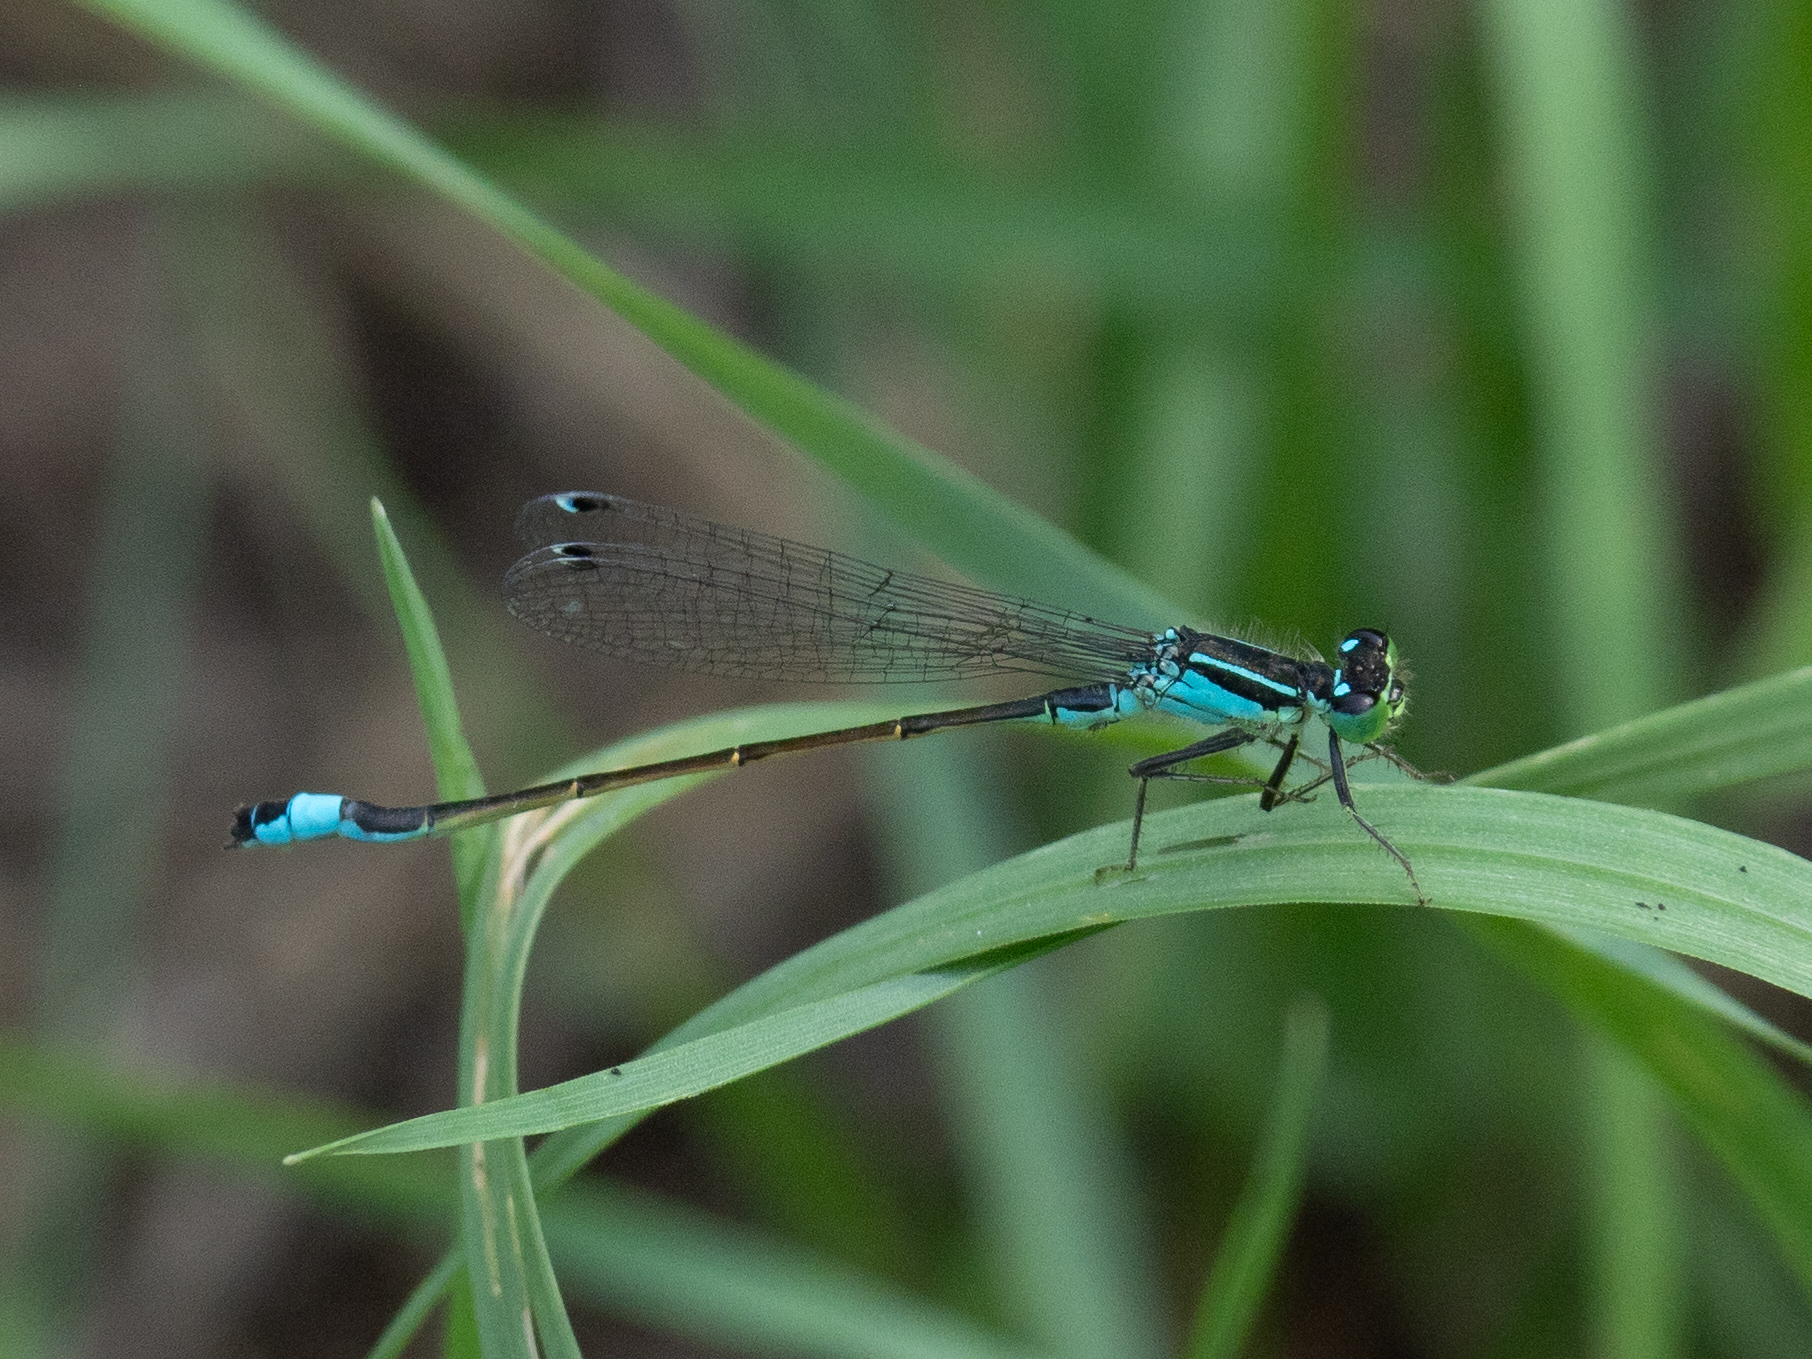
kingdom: Animalia
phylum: Arthropoda
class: Insecta
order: Odonata
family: Coenagrionidae
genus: Ischnura
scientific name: Ischnura elegans
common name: Blue-tailed damselfly
